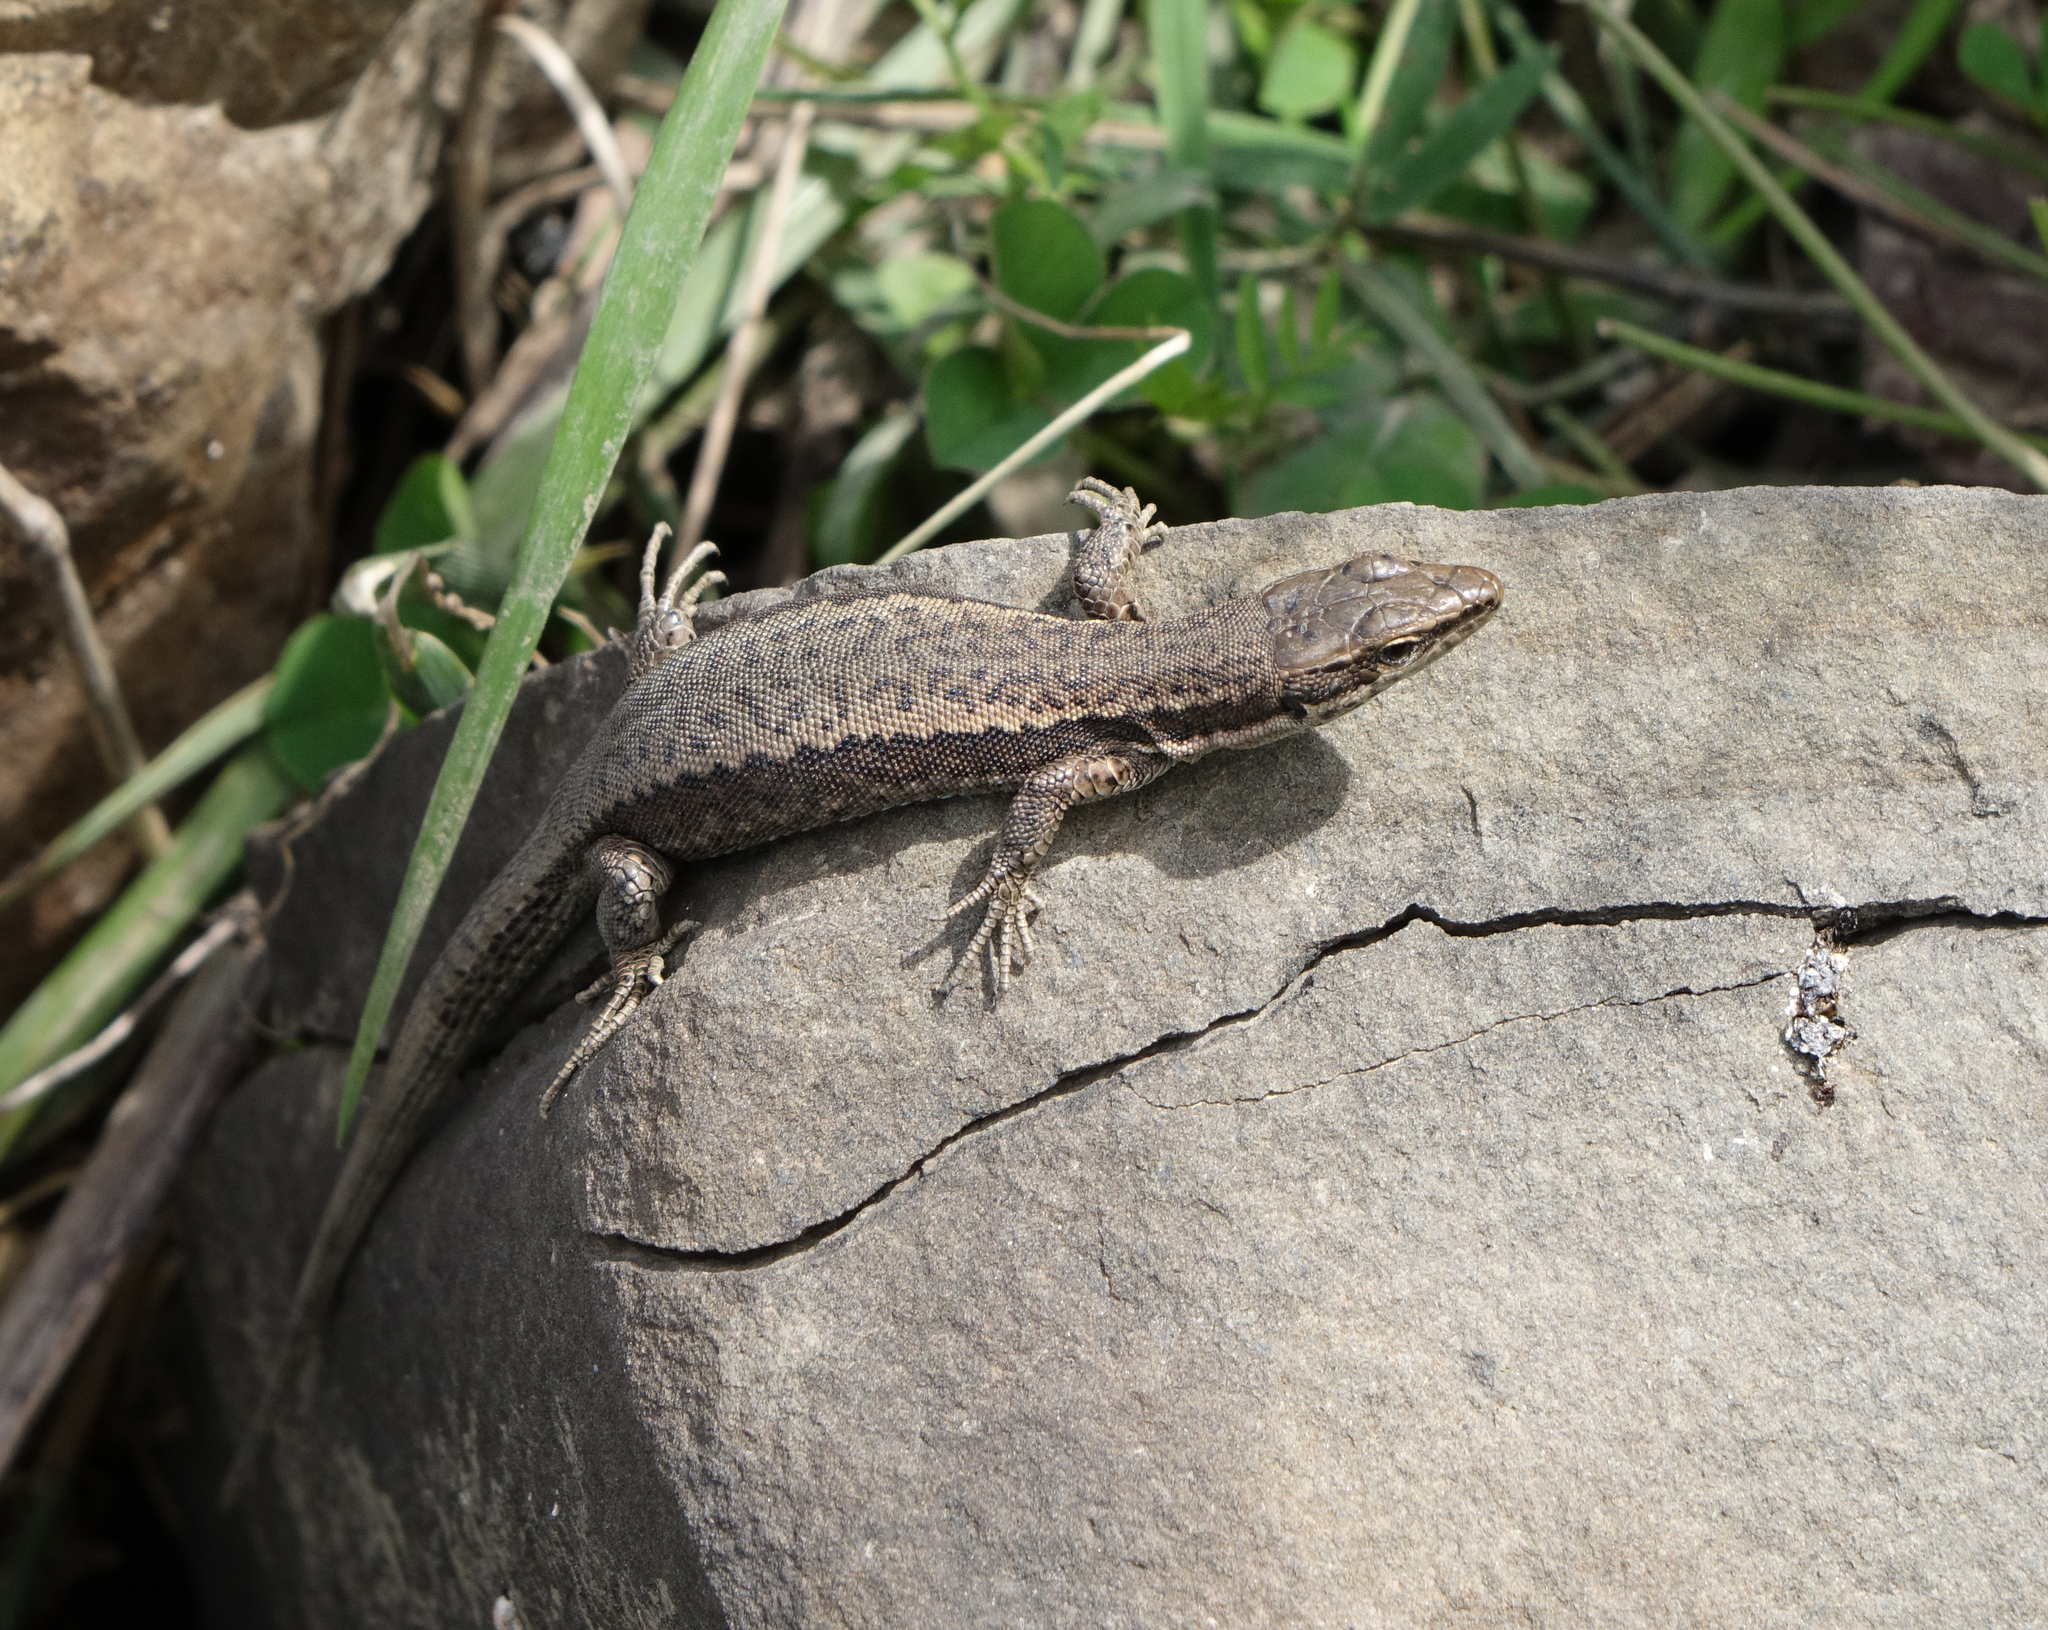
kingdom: Animalia
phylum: Chordata
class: Squamata
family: Lacertidae
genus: Darevskia
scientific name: Darevskia daghestanica
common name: Dagestan lizard
